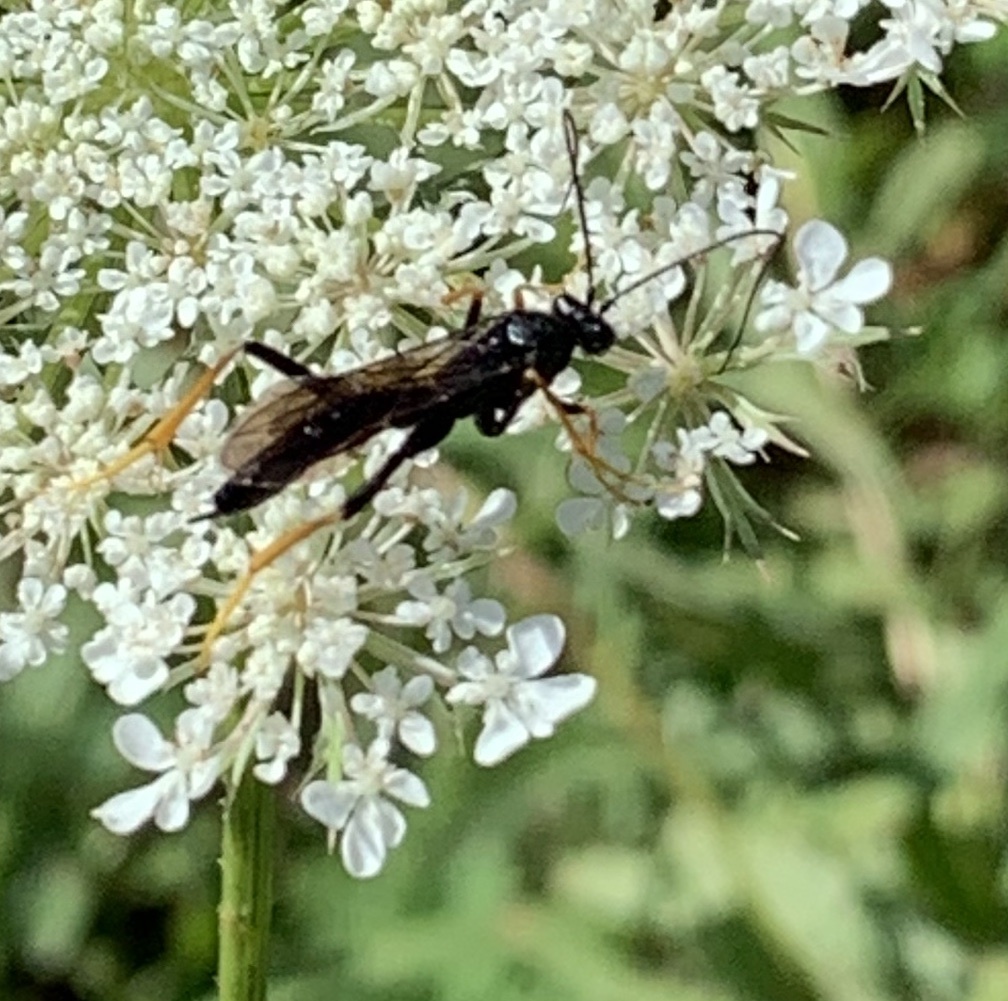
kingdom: Animalia
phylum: Arthropoda
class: Insecta
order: Hymenoptera
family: Ichneumonidae
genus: Exetastes
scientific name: Exetastes suaveolens
